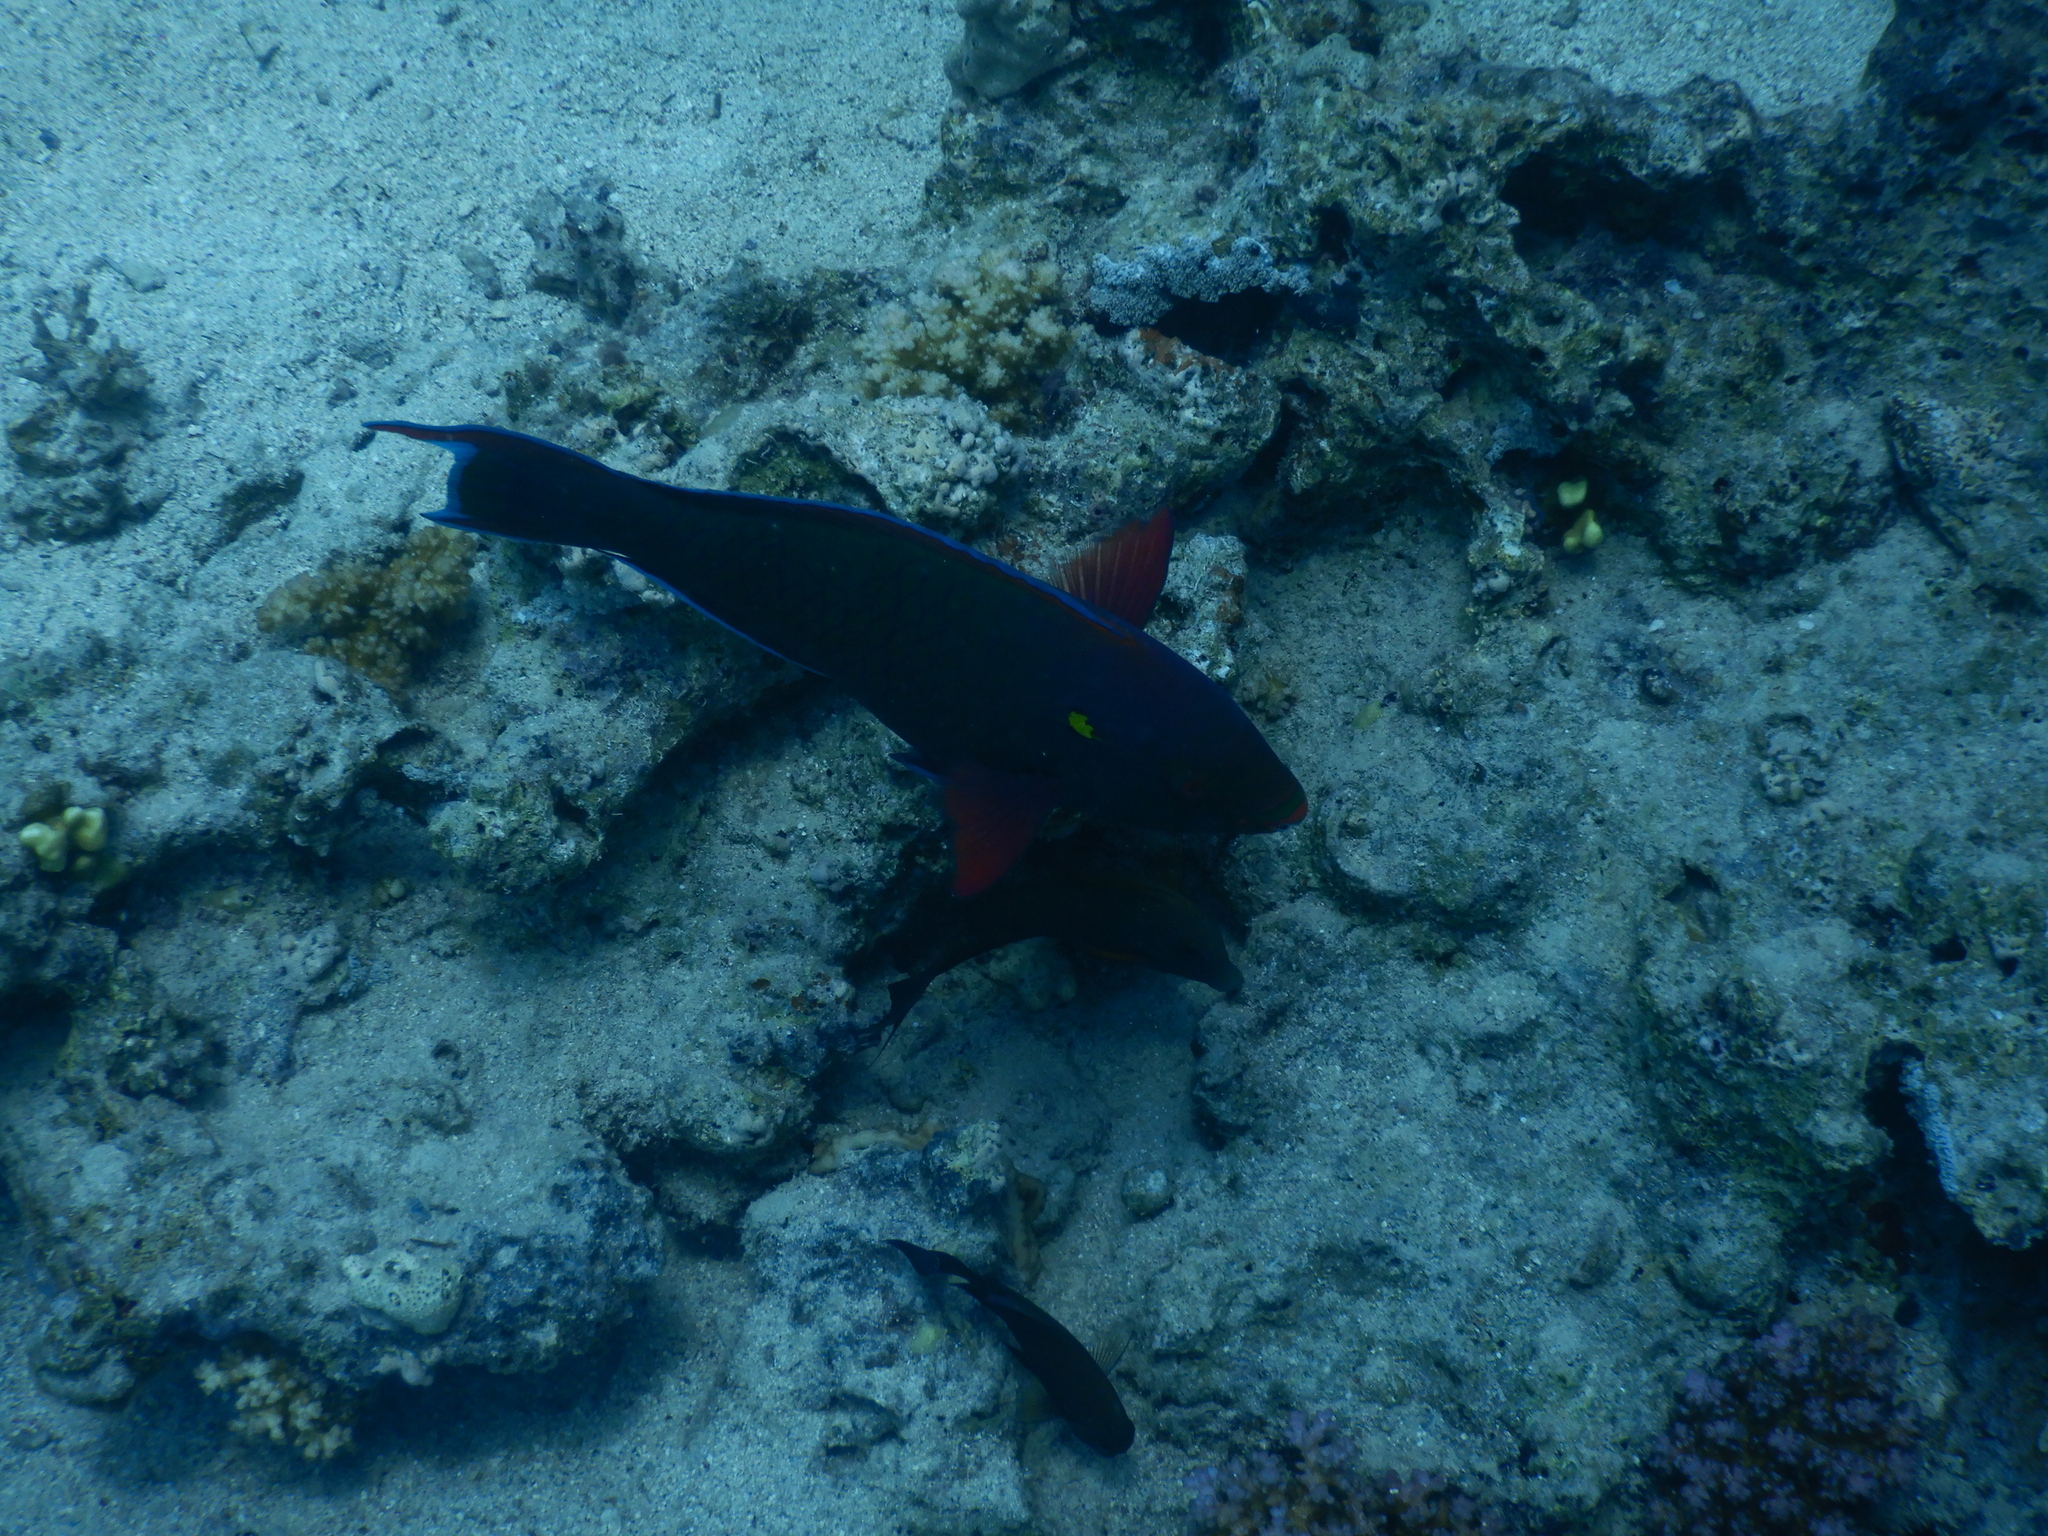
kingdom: Animalia
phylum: Chordata
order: Perciformes
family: Scaridae
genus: Scarus
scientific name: Scarus niger
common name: Dusky parrotfish
